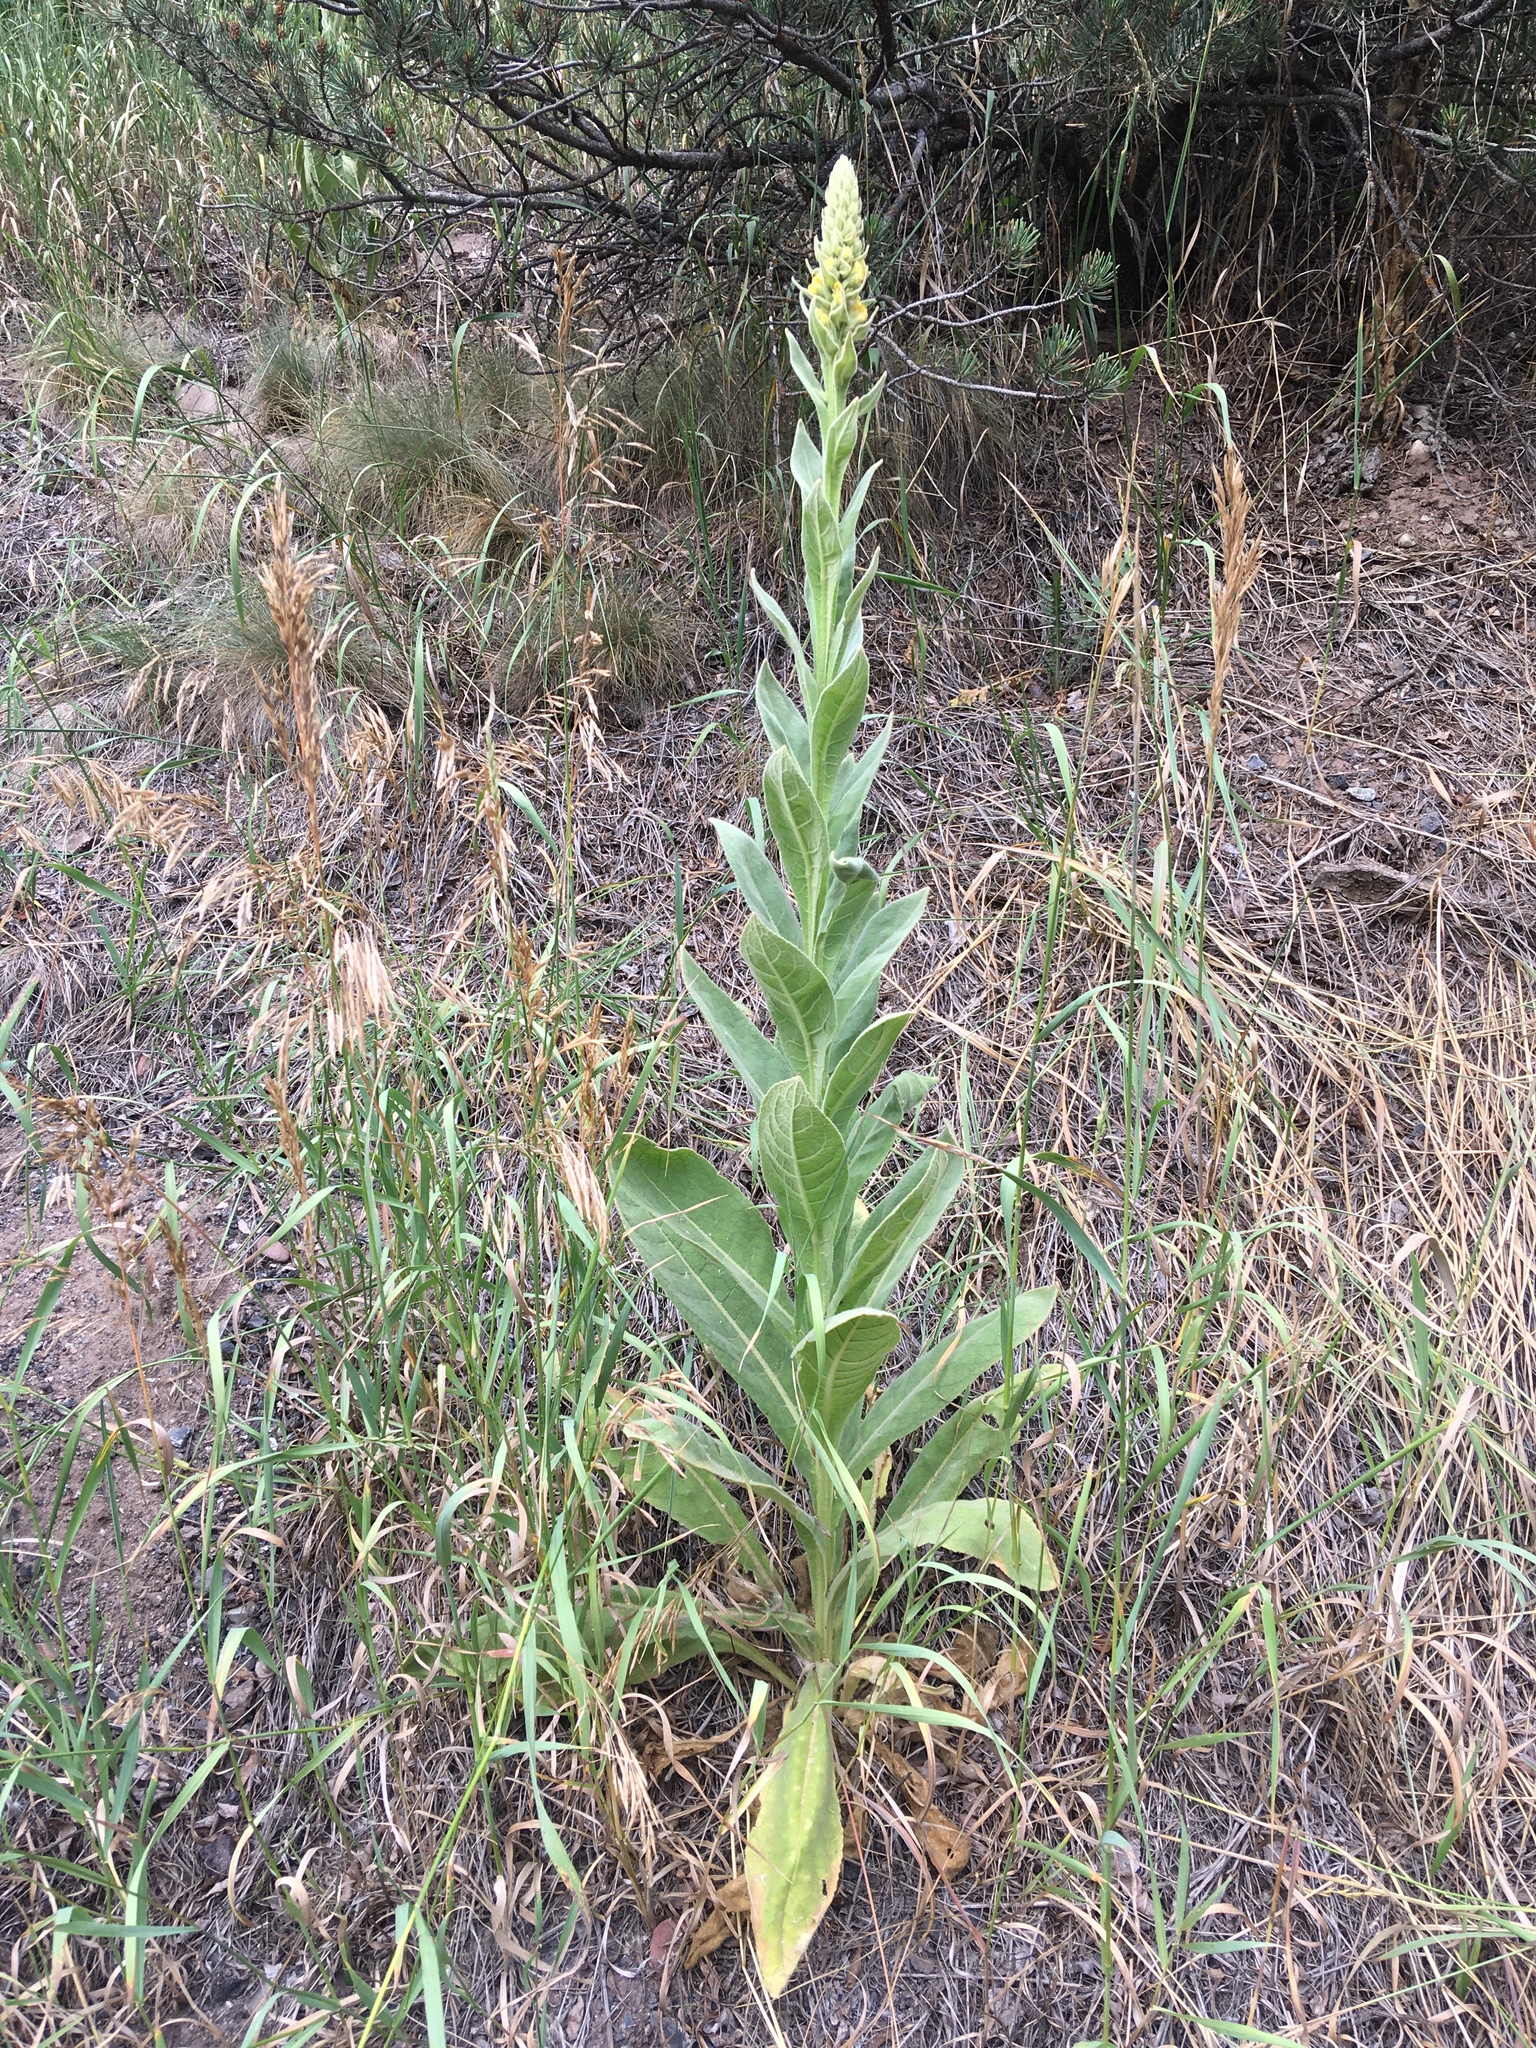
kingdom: Plantae
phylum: Tracheophyta
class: Magnoliopsida
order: Lamiales
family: Scrophulariaceae
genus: Verbascum
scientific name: Verbascum thapsus
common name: Common mullein
